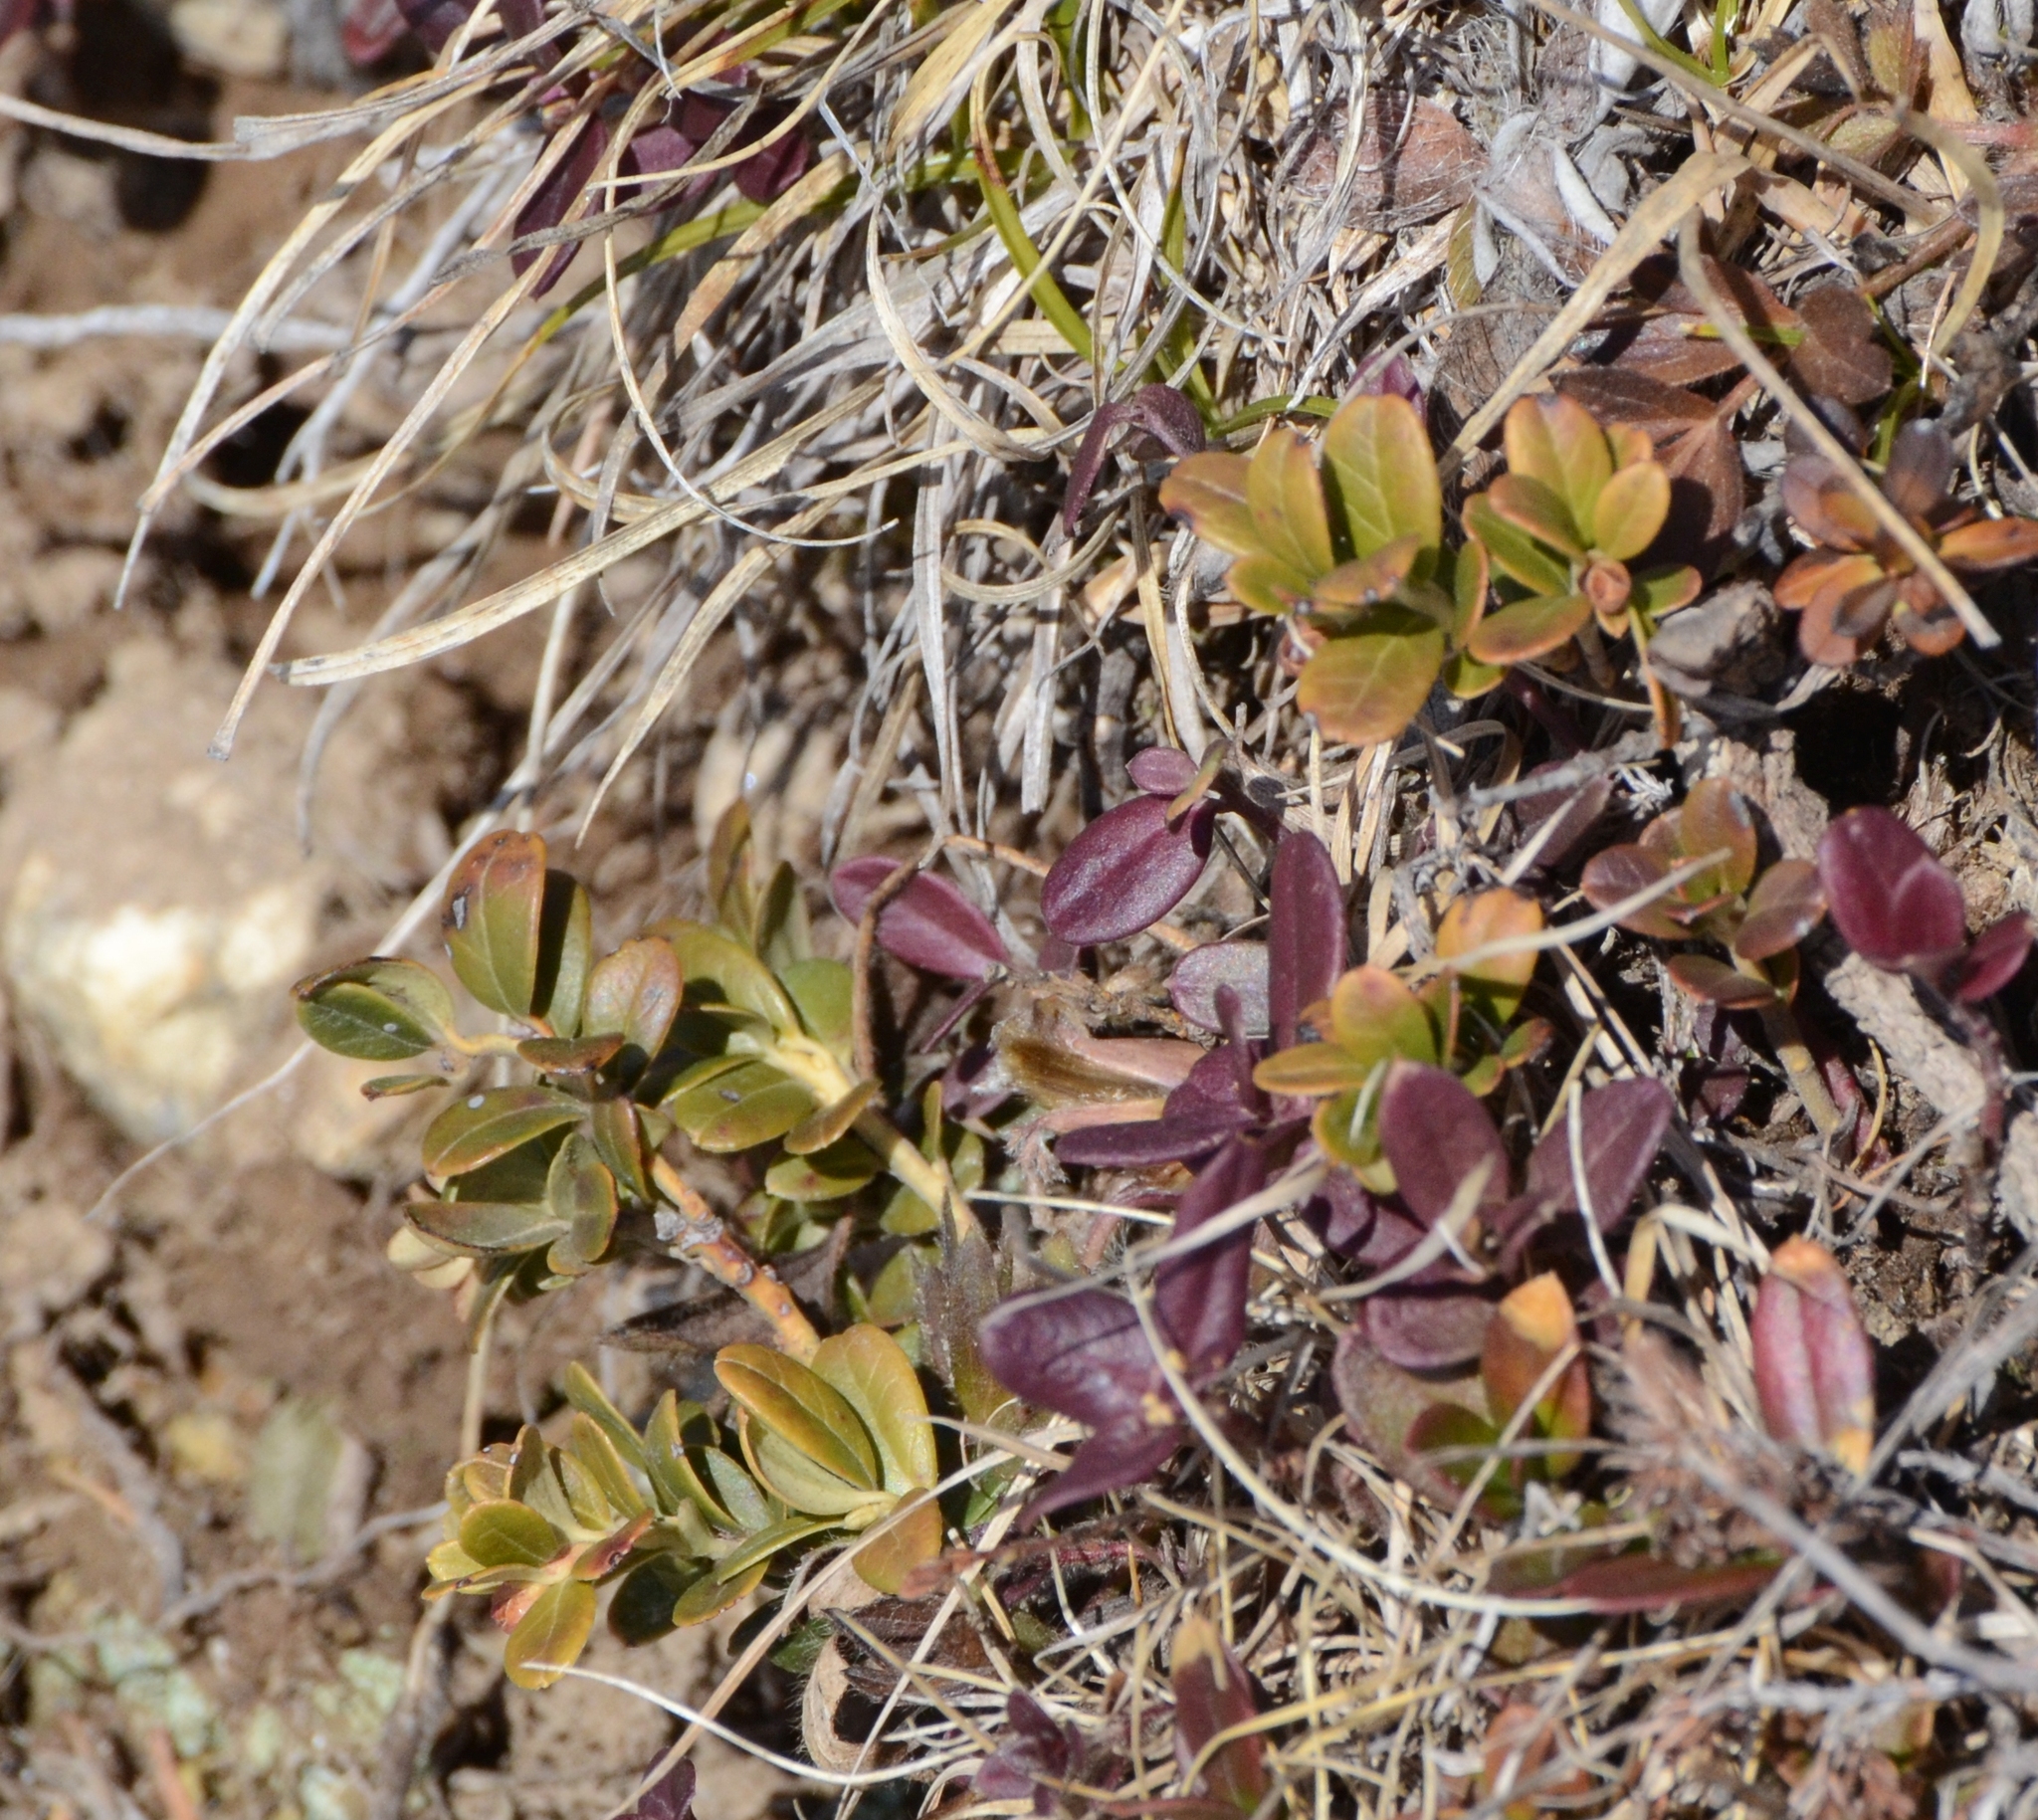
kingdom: Plantae
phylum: Tracheophyta
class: Magnoliopsida
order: Ericales
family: Ericaceae
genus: Vaccinium
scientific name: Vaccinium vitis-idaea
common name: Cowberry
